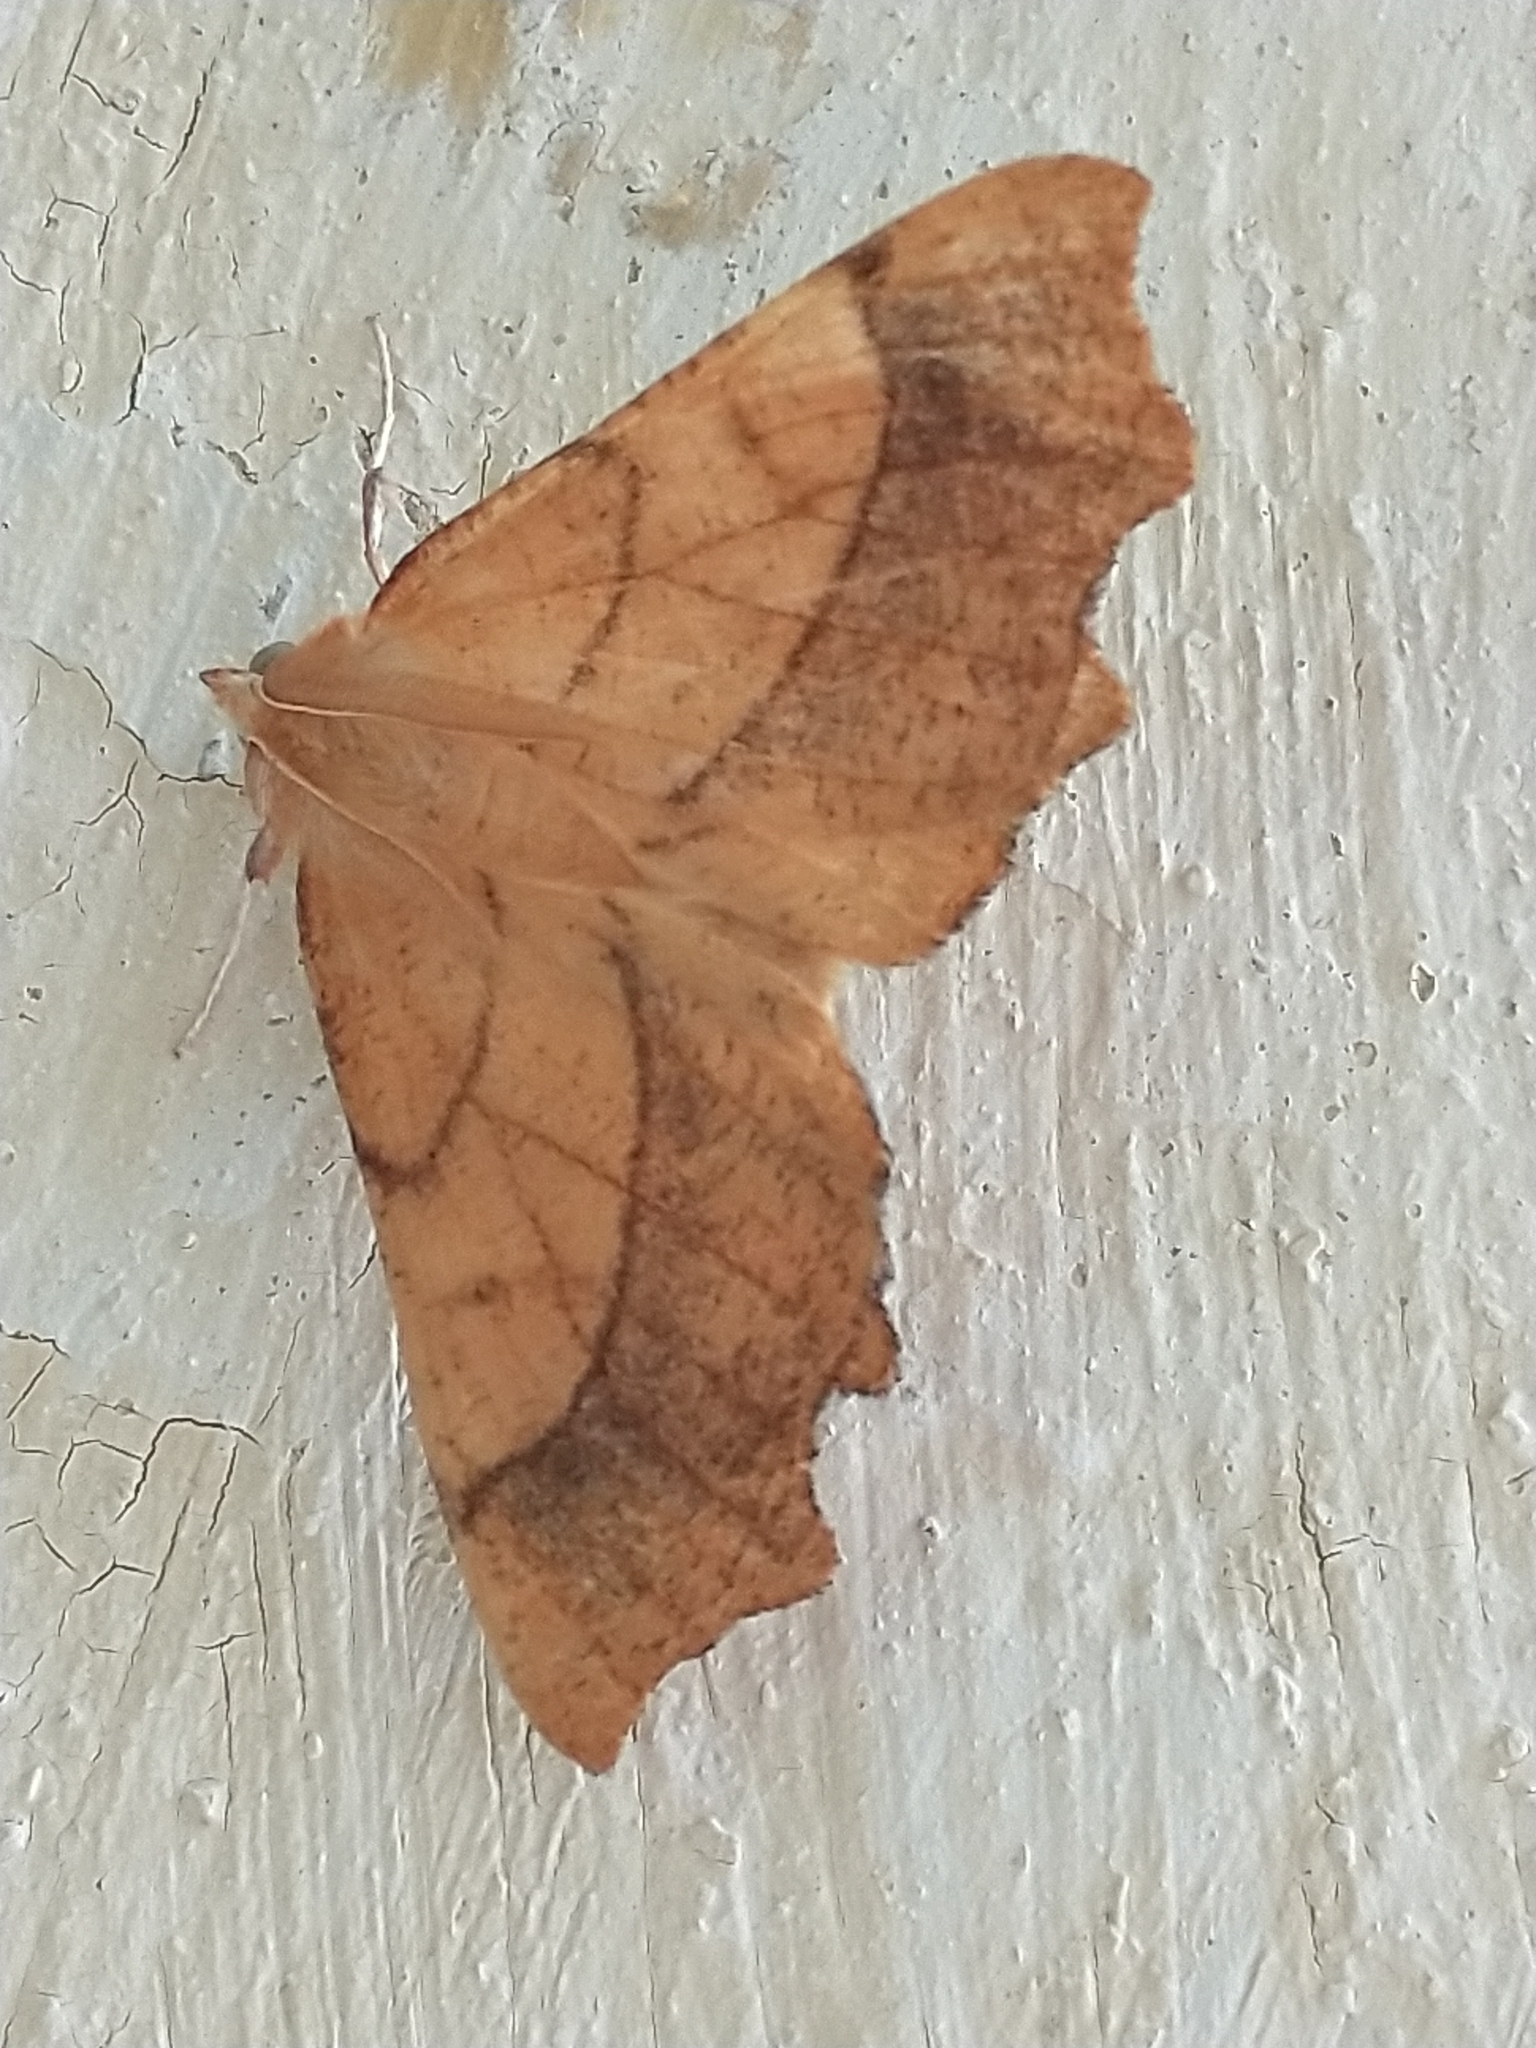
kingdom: Animalia
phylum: Arthropoda
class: Insecta
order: Lepidoptera
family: Geometridae
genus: Ennomos
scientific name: Ennomos quercinaria
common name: August thorn
